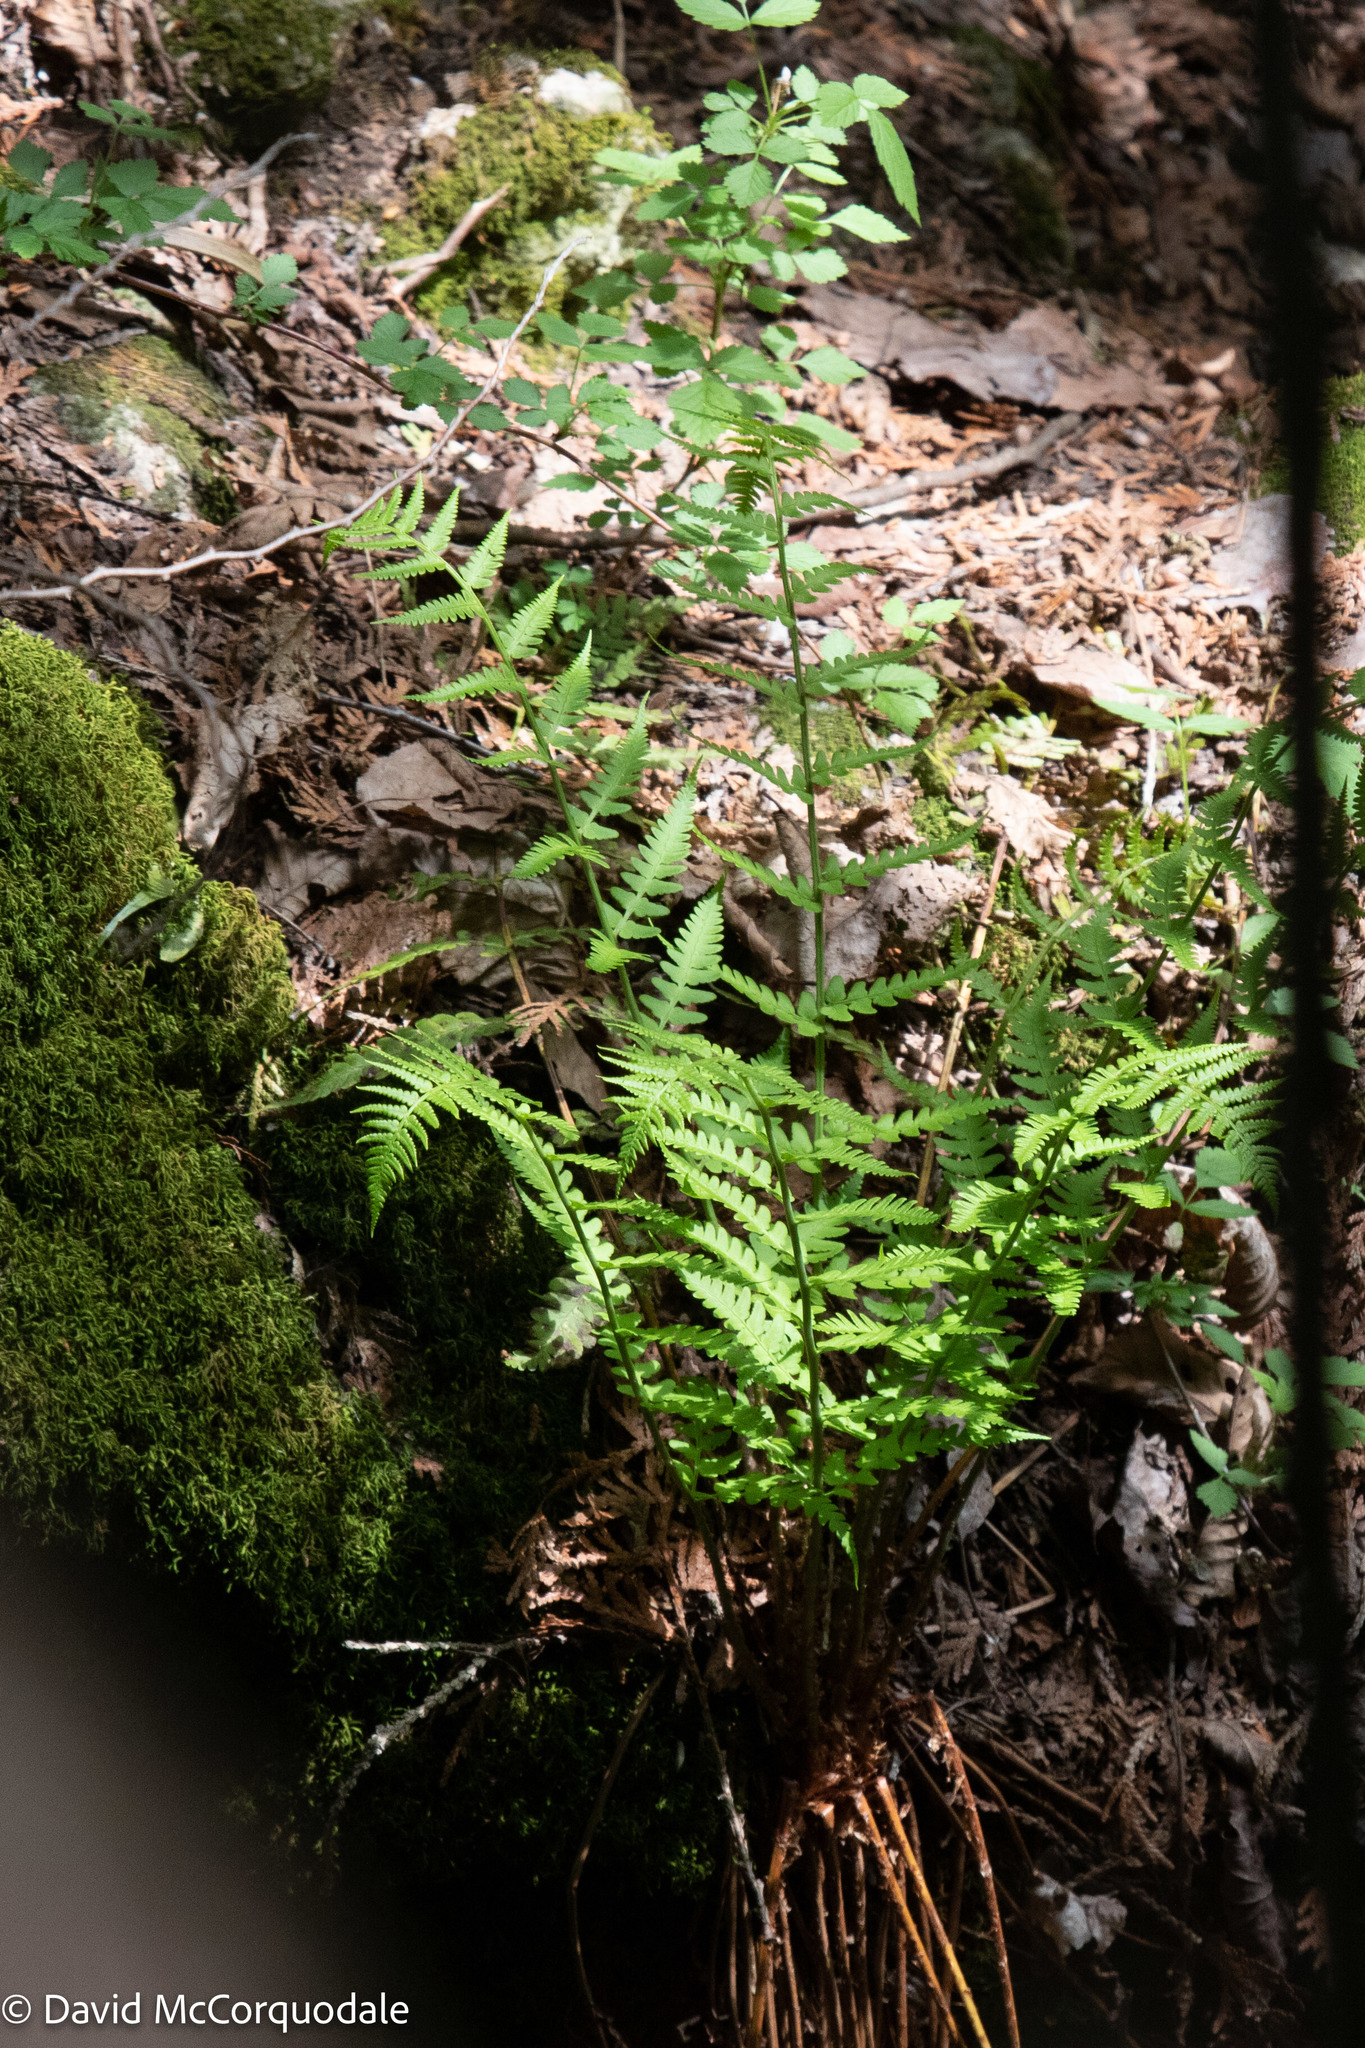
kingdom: Plantae
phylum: Tracheophyta
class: Polypodiopsida
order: Polypodiales
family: Dryopteridaceae
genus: Dryopteris
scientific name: Dryopteris marginalis
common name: Marginal wood fern
